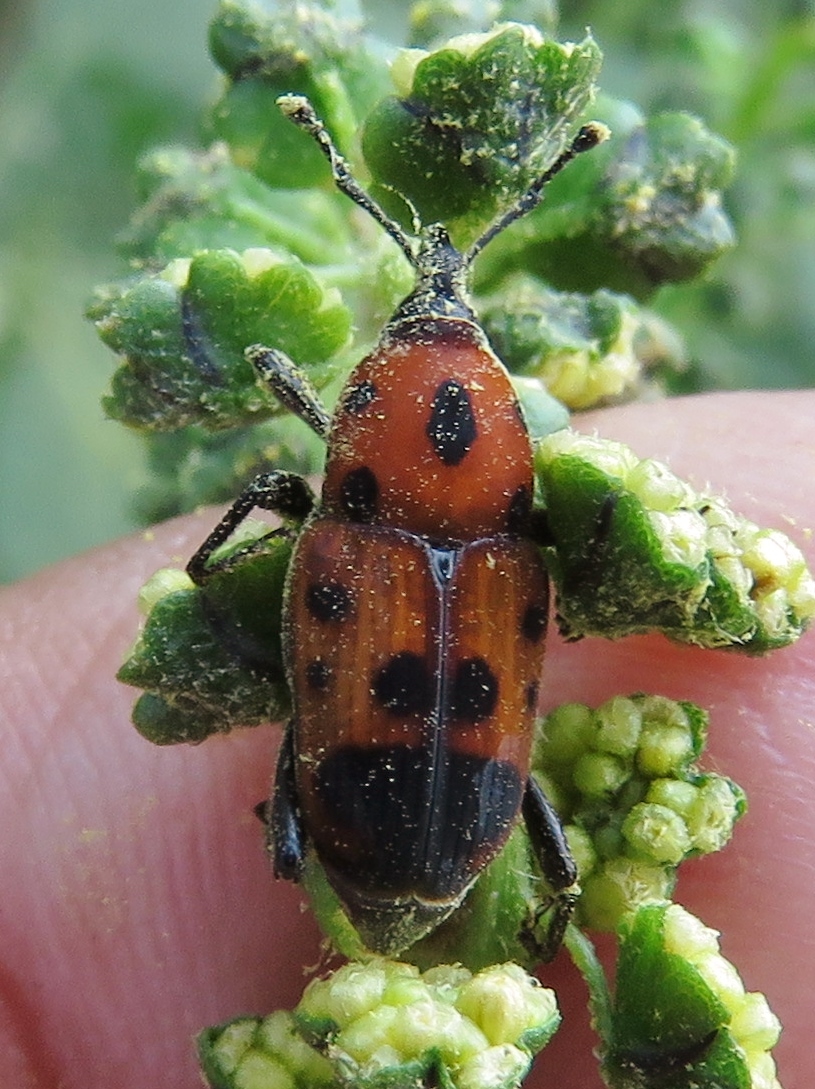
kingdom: Animalia
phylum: Arthropoda
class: Insecta
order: Coleoptera
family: Dryophthoridae
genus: Rhodobaenus
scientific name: Rhodobaenus quinquepunctatus
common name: Cocklebur weevil
